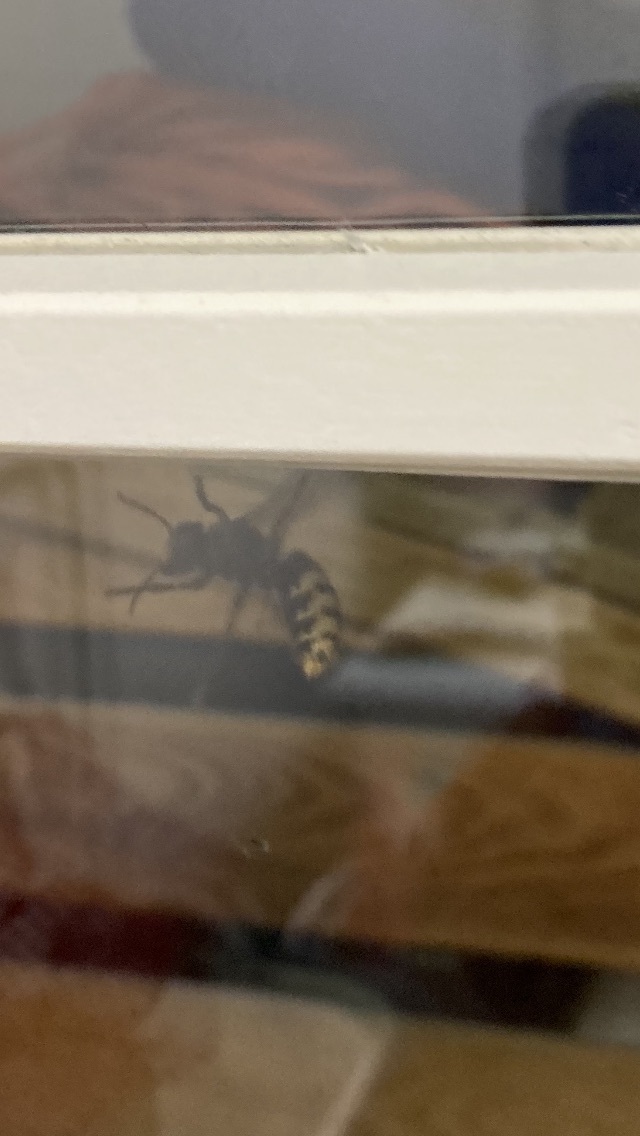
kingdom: Animalia
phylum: Arthropoda
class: Insecta
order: Hymenoptera
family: Vespidae
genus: Vespa
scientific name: Vespa crabro
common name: Hornet
